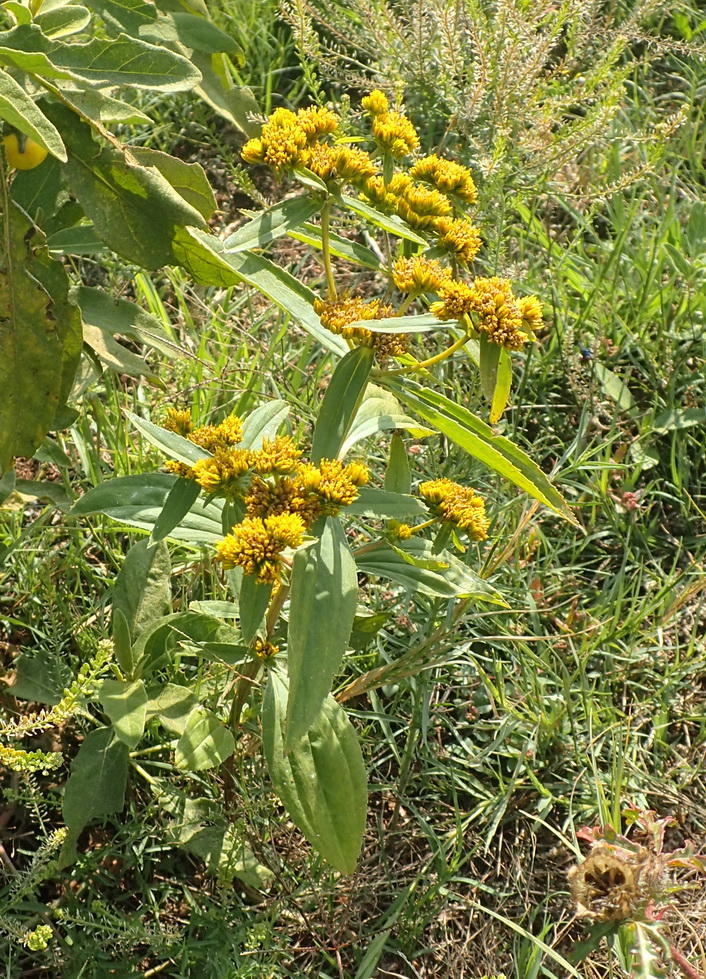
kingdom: Plantae
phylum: Tracheophyta
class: Magnoliopsida
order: Asterales
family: Asteraceae
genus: Flaveria
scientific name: Flaveria bidentis
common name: Coastal plain yellowtops
